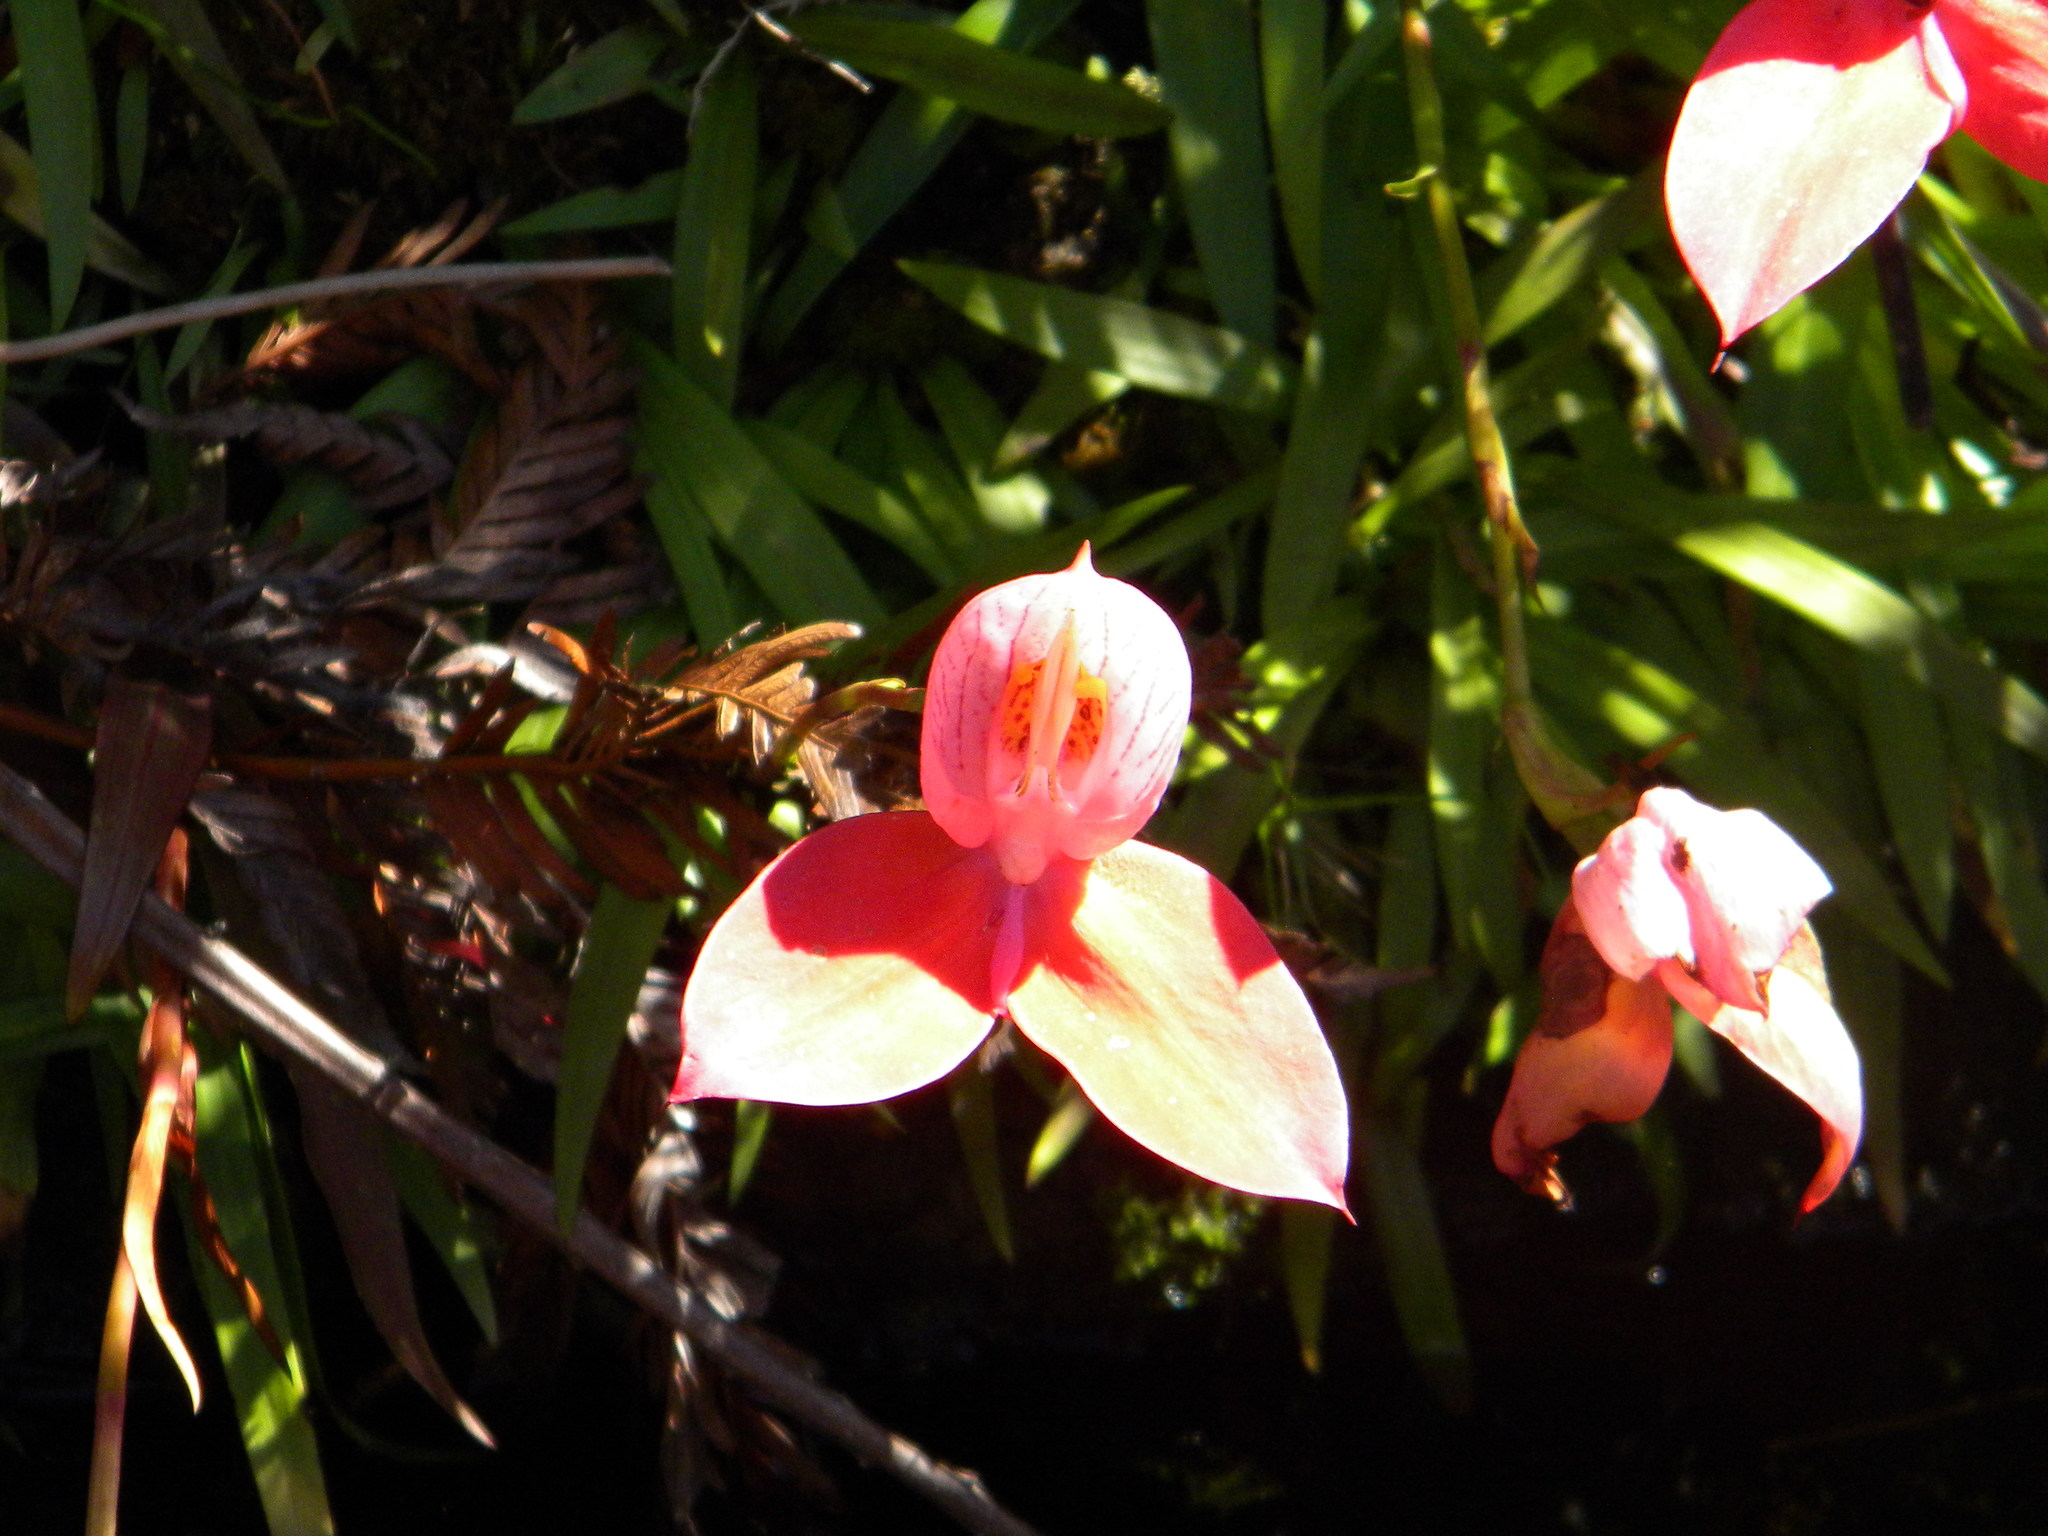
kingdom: Plantae
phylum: Tracheophyta
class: Liliopsida
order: Asparagales
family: Orchidaceae
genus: Disa
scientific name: Disa uniflora
